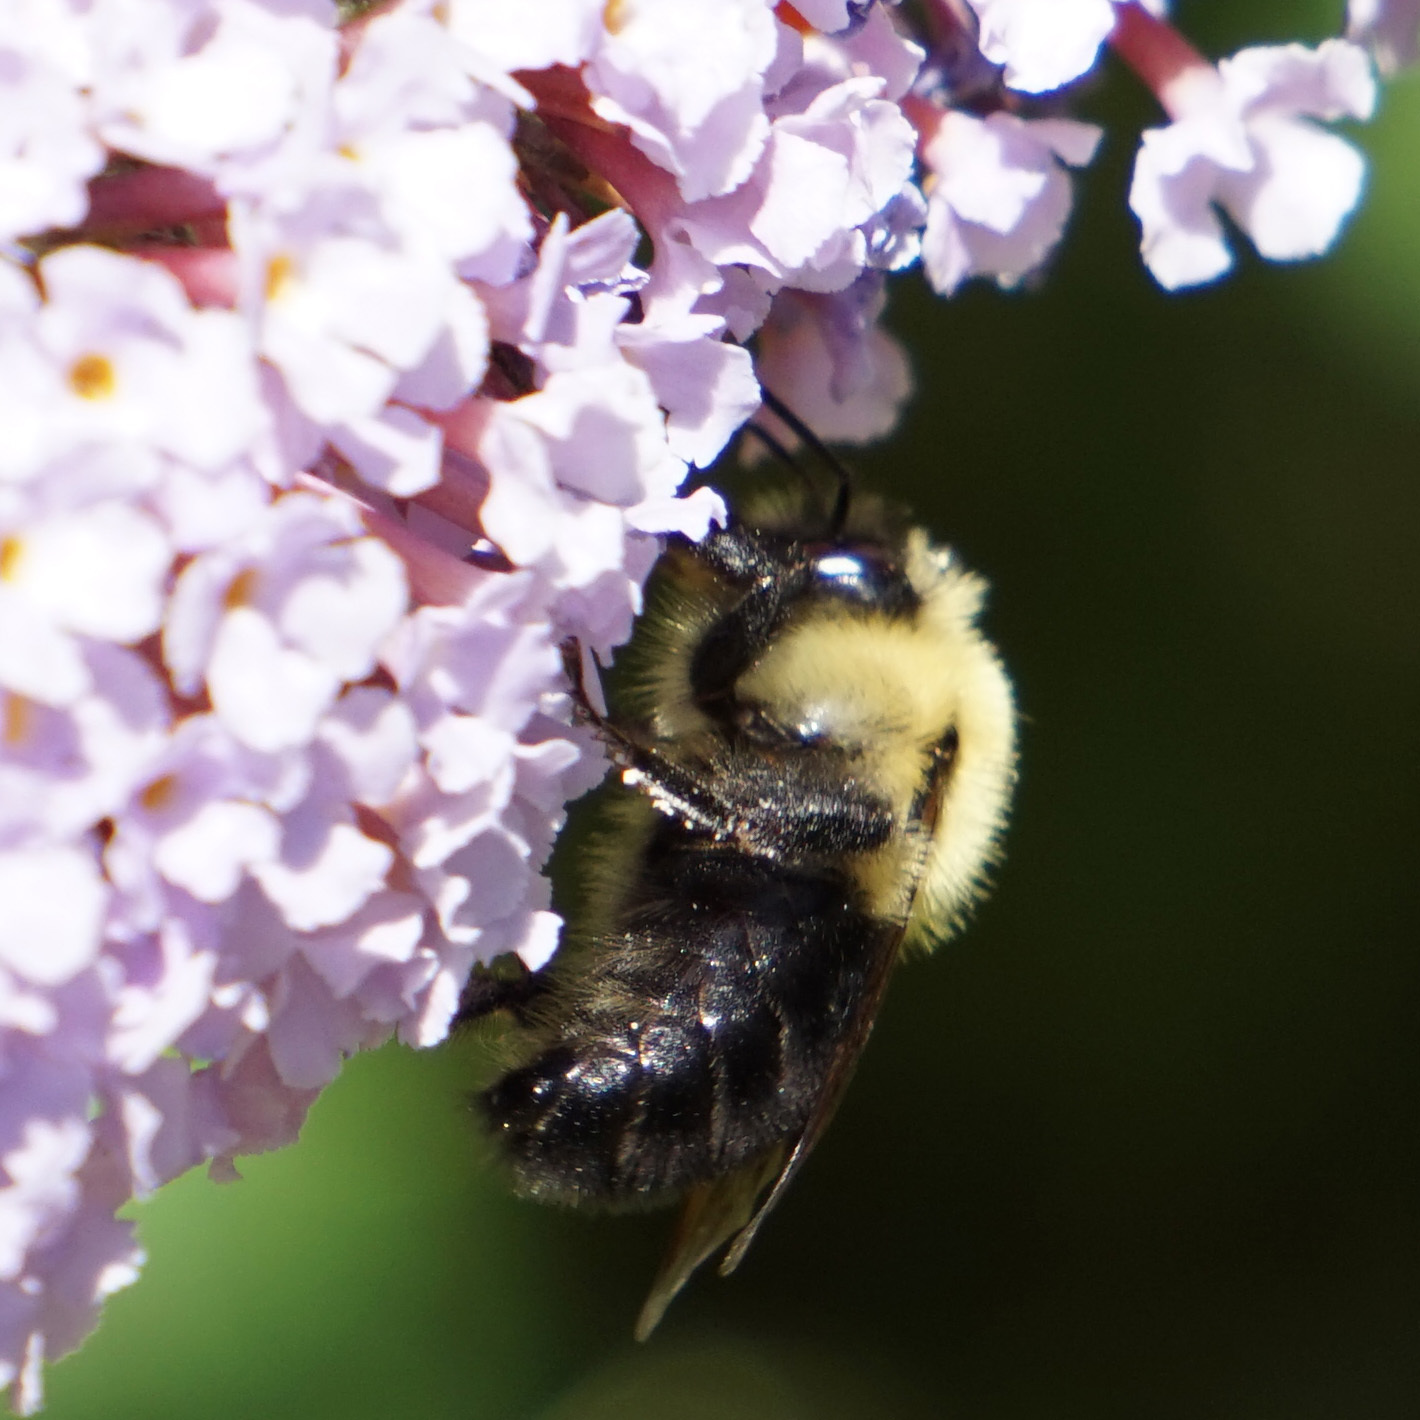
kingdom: Animalia
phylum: Arthropoda
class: Insecta
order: Hymenoptera
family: Apidae
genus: Bombus
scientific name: Bombus bimaculatus
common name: Two-spotted bumble bee
